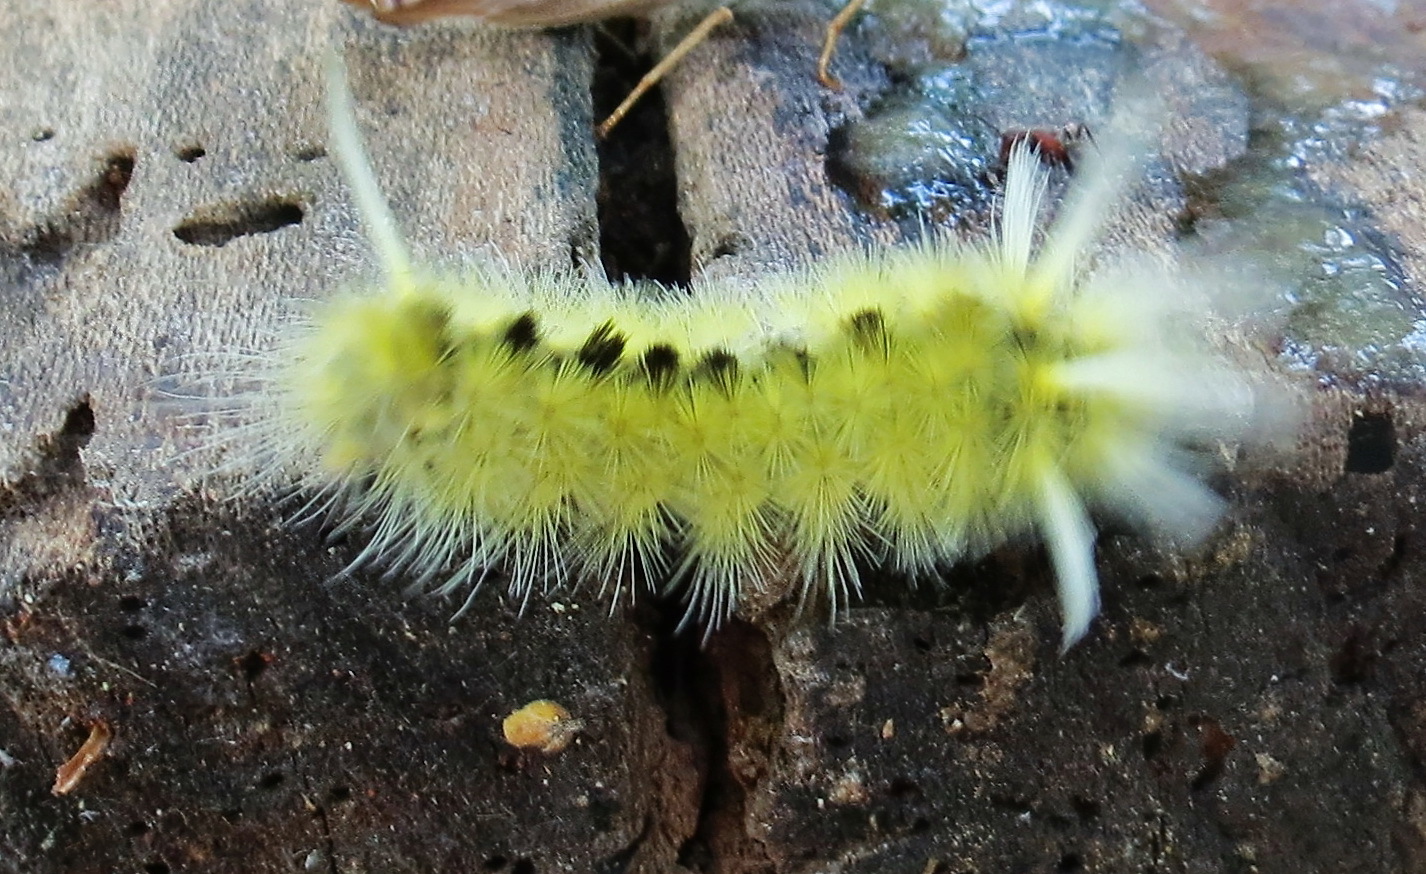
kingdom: Animalia
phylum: Arthropoda
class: Insecta
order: Lepidoptera
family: Erebidae
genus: Halysidota
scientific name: Halysidota schausi
